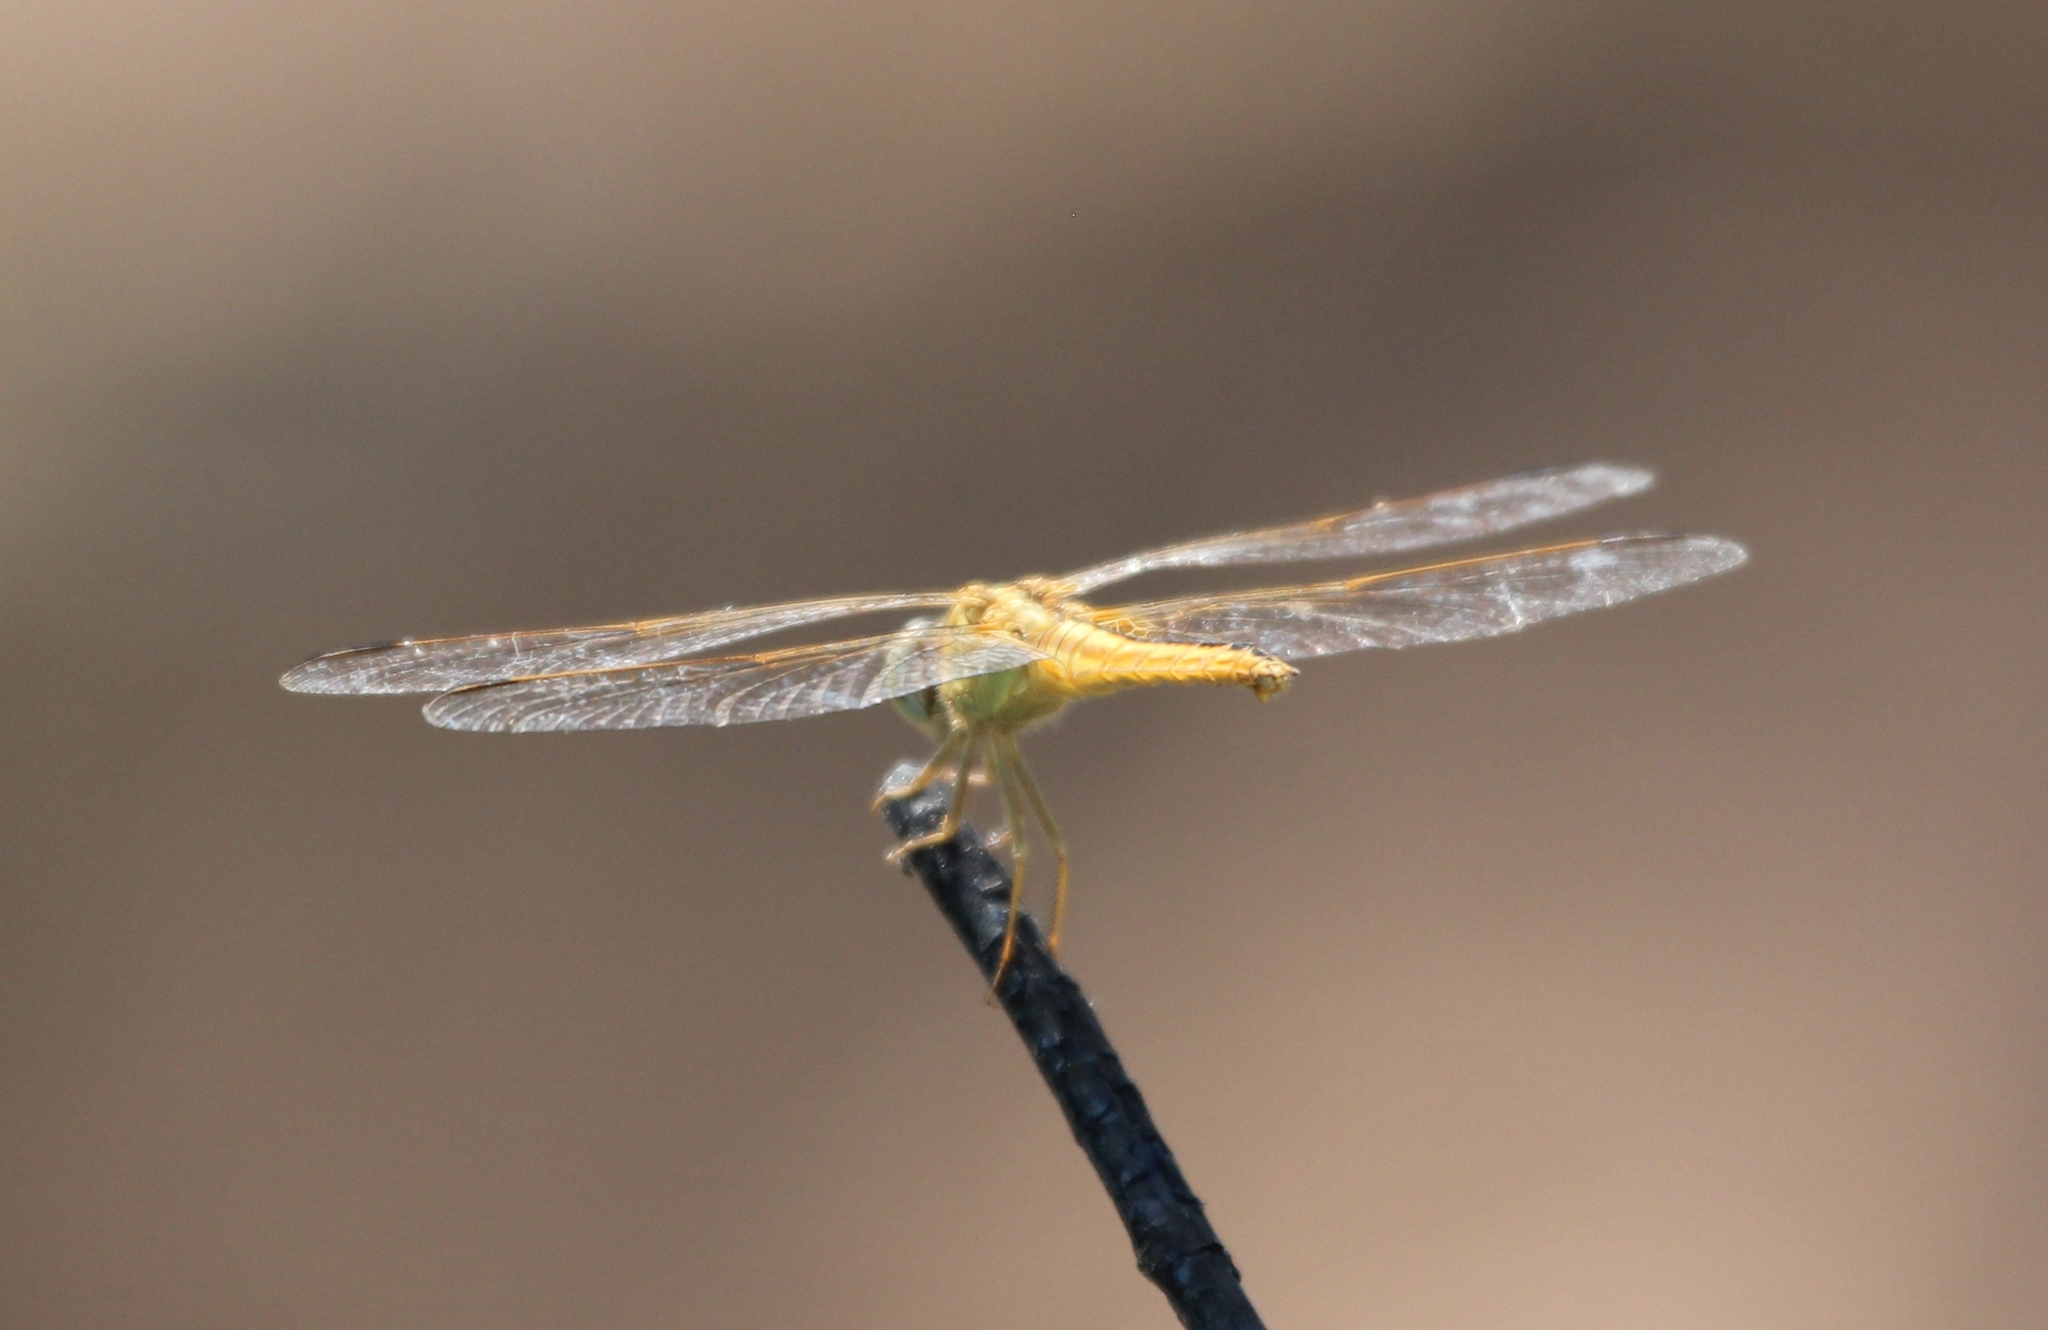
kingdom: Animalia
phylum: Arthropoda
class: Insecta
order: Odonata
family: Libellulidae
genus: Crocothemis
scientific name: Crocothemis servilia
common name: Scarlet skimmer
